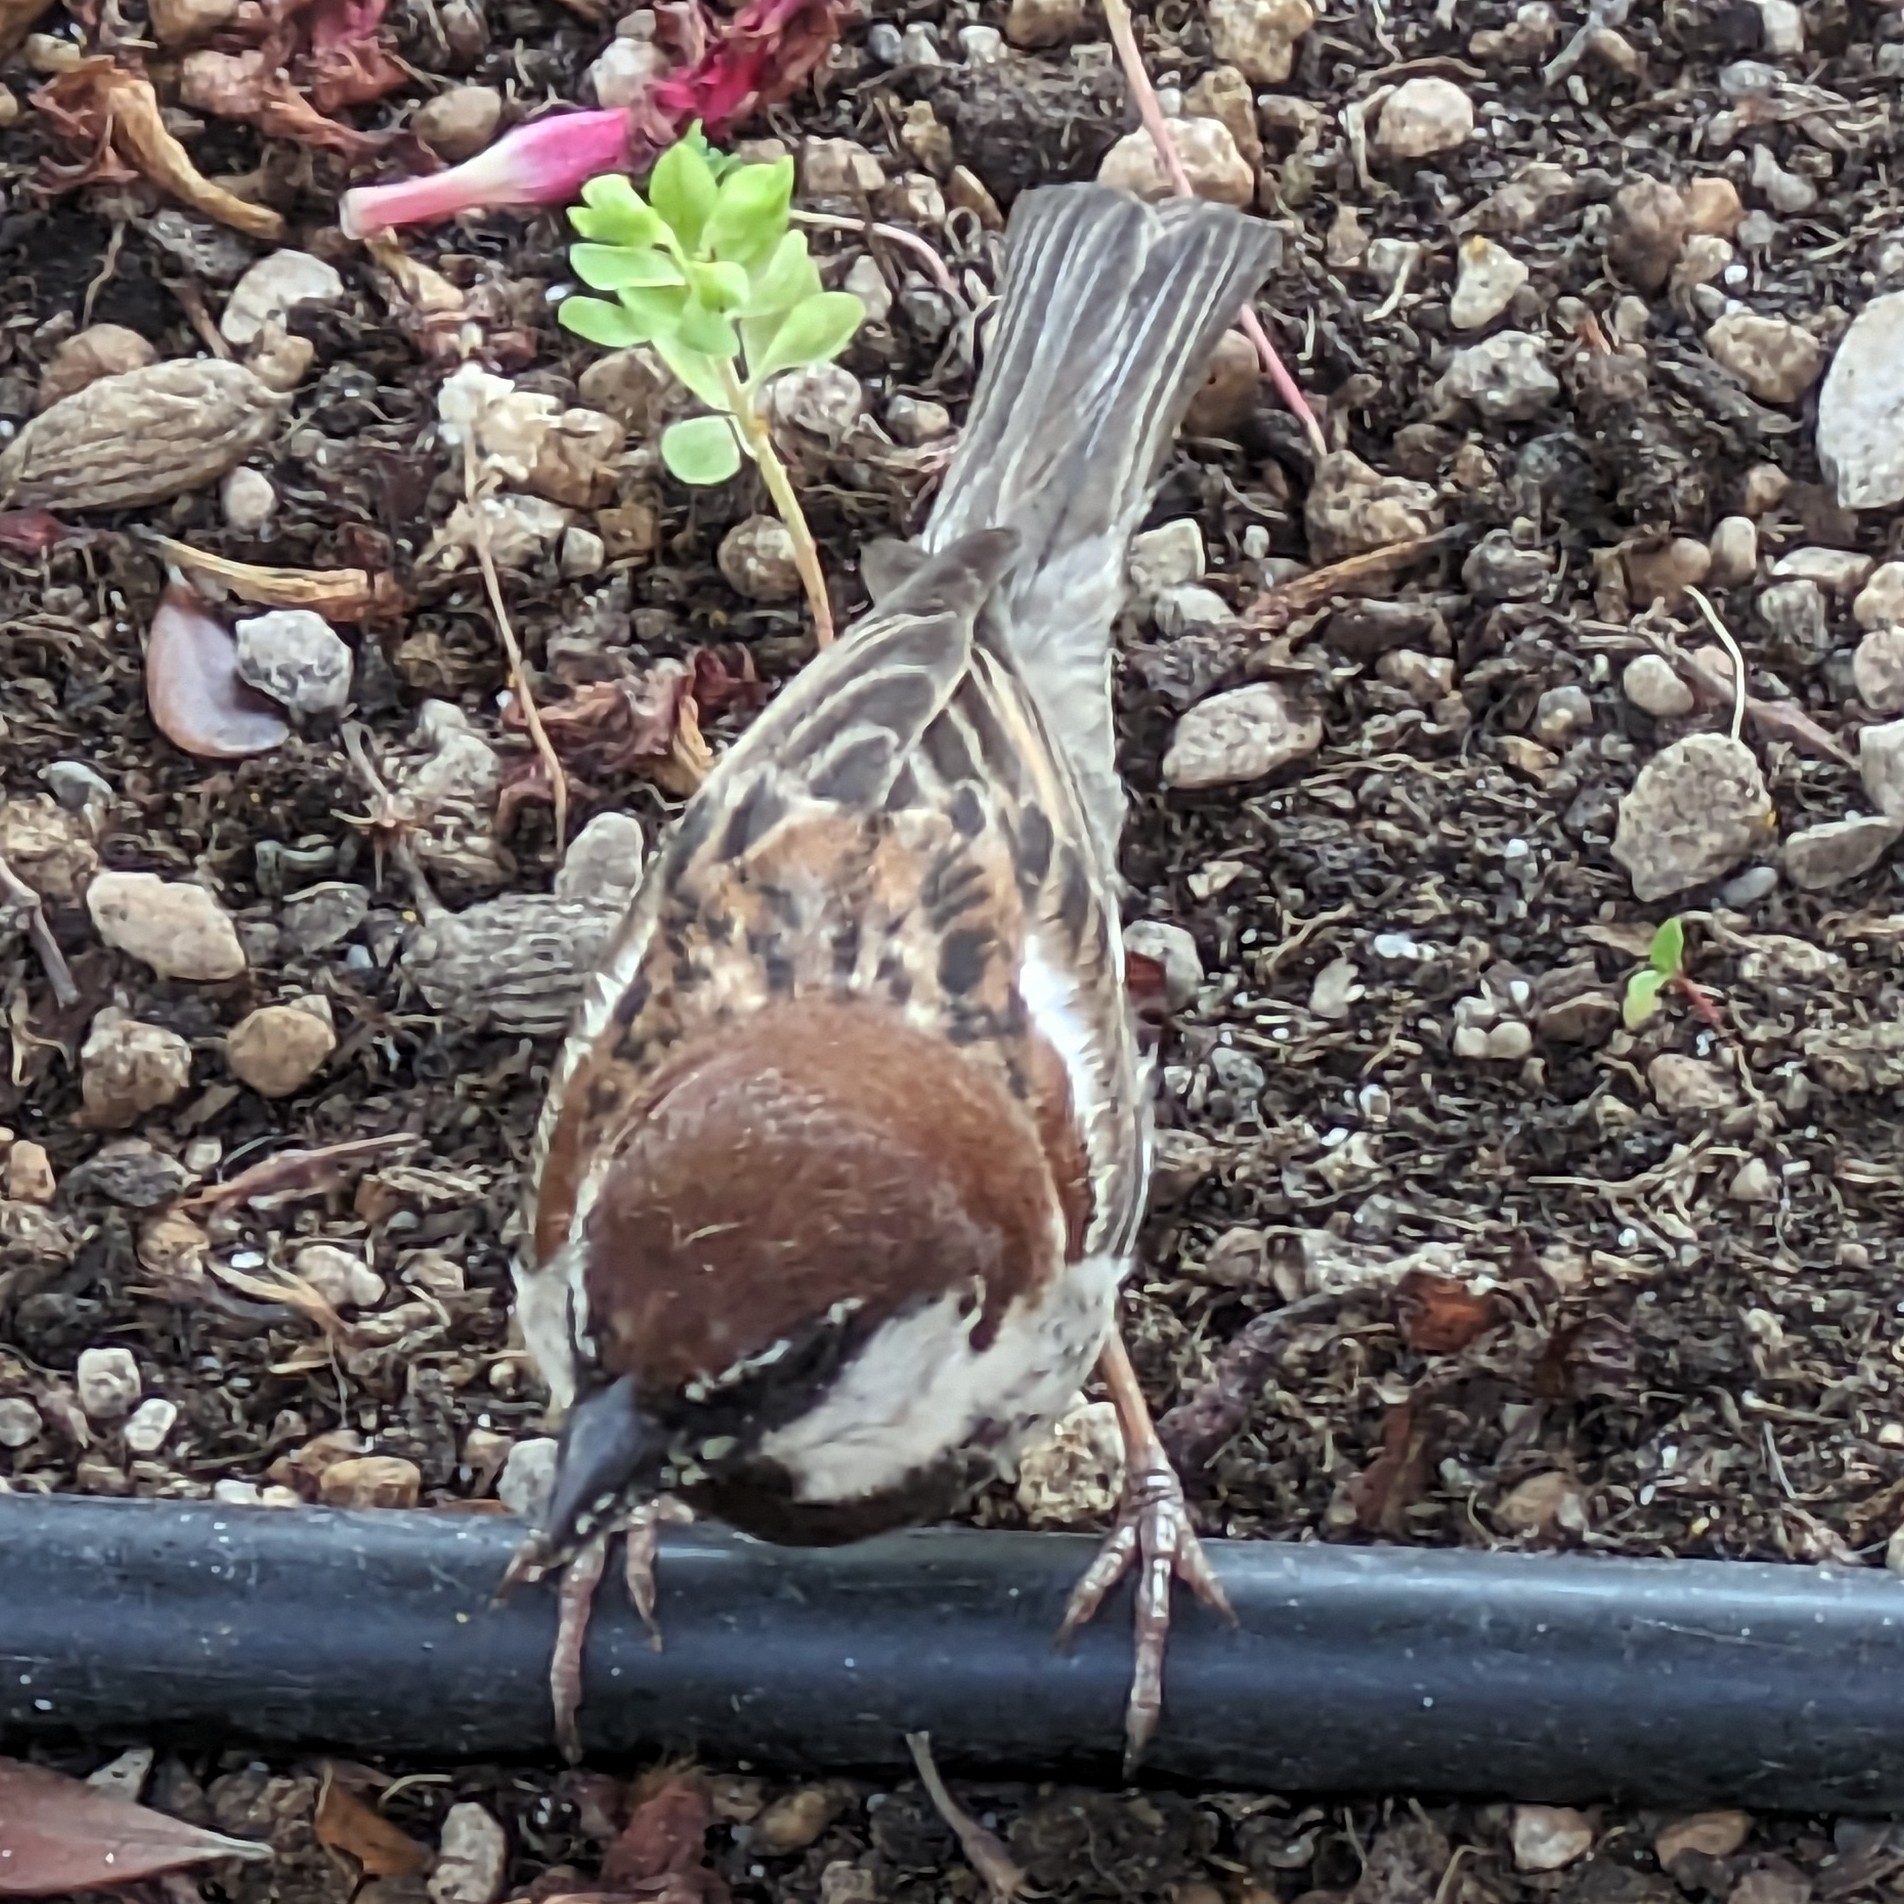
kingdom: Animalia
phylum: Chordata
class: Aves
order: Passeriformes
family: Passeridae
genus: Passer
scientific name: Passer italiae
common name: Italian sparrow
